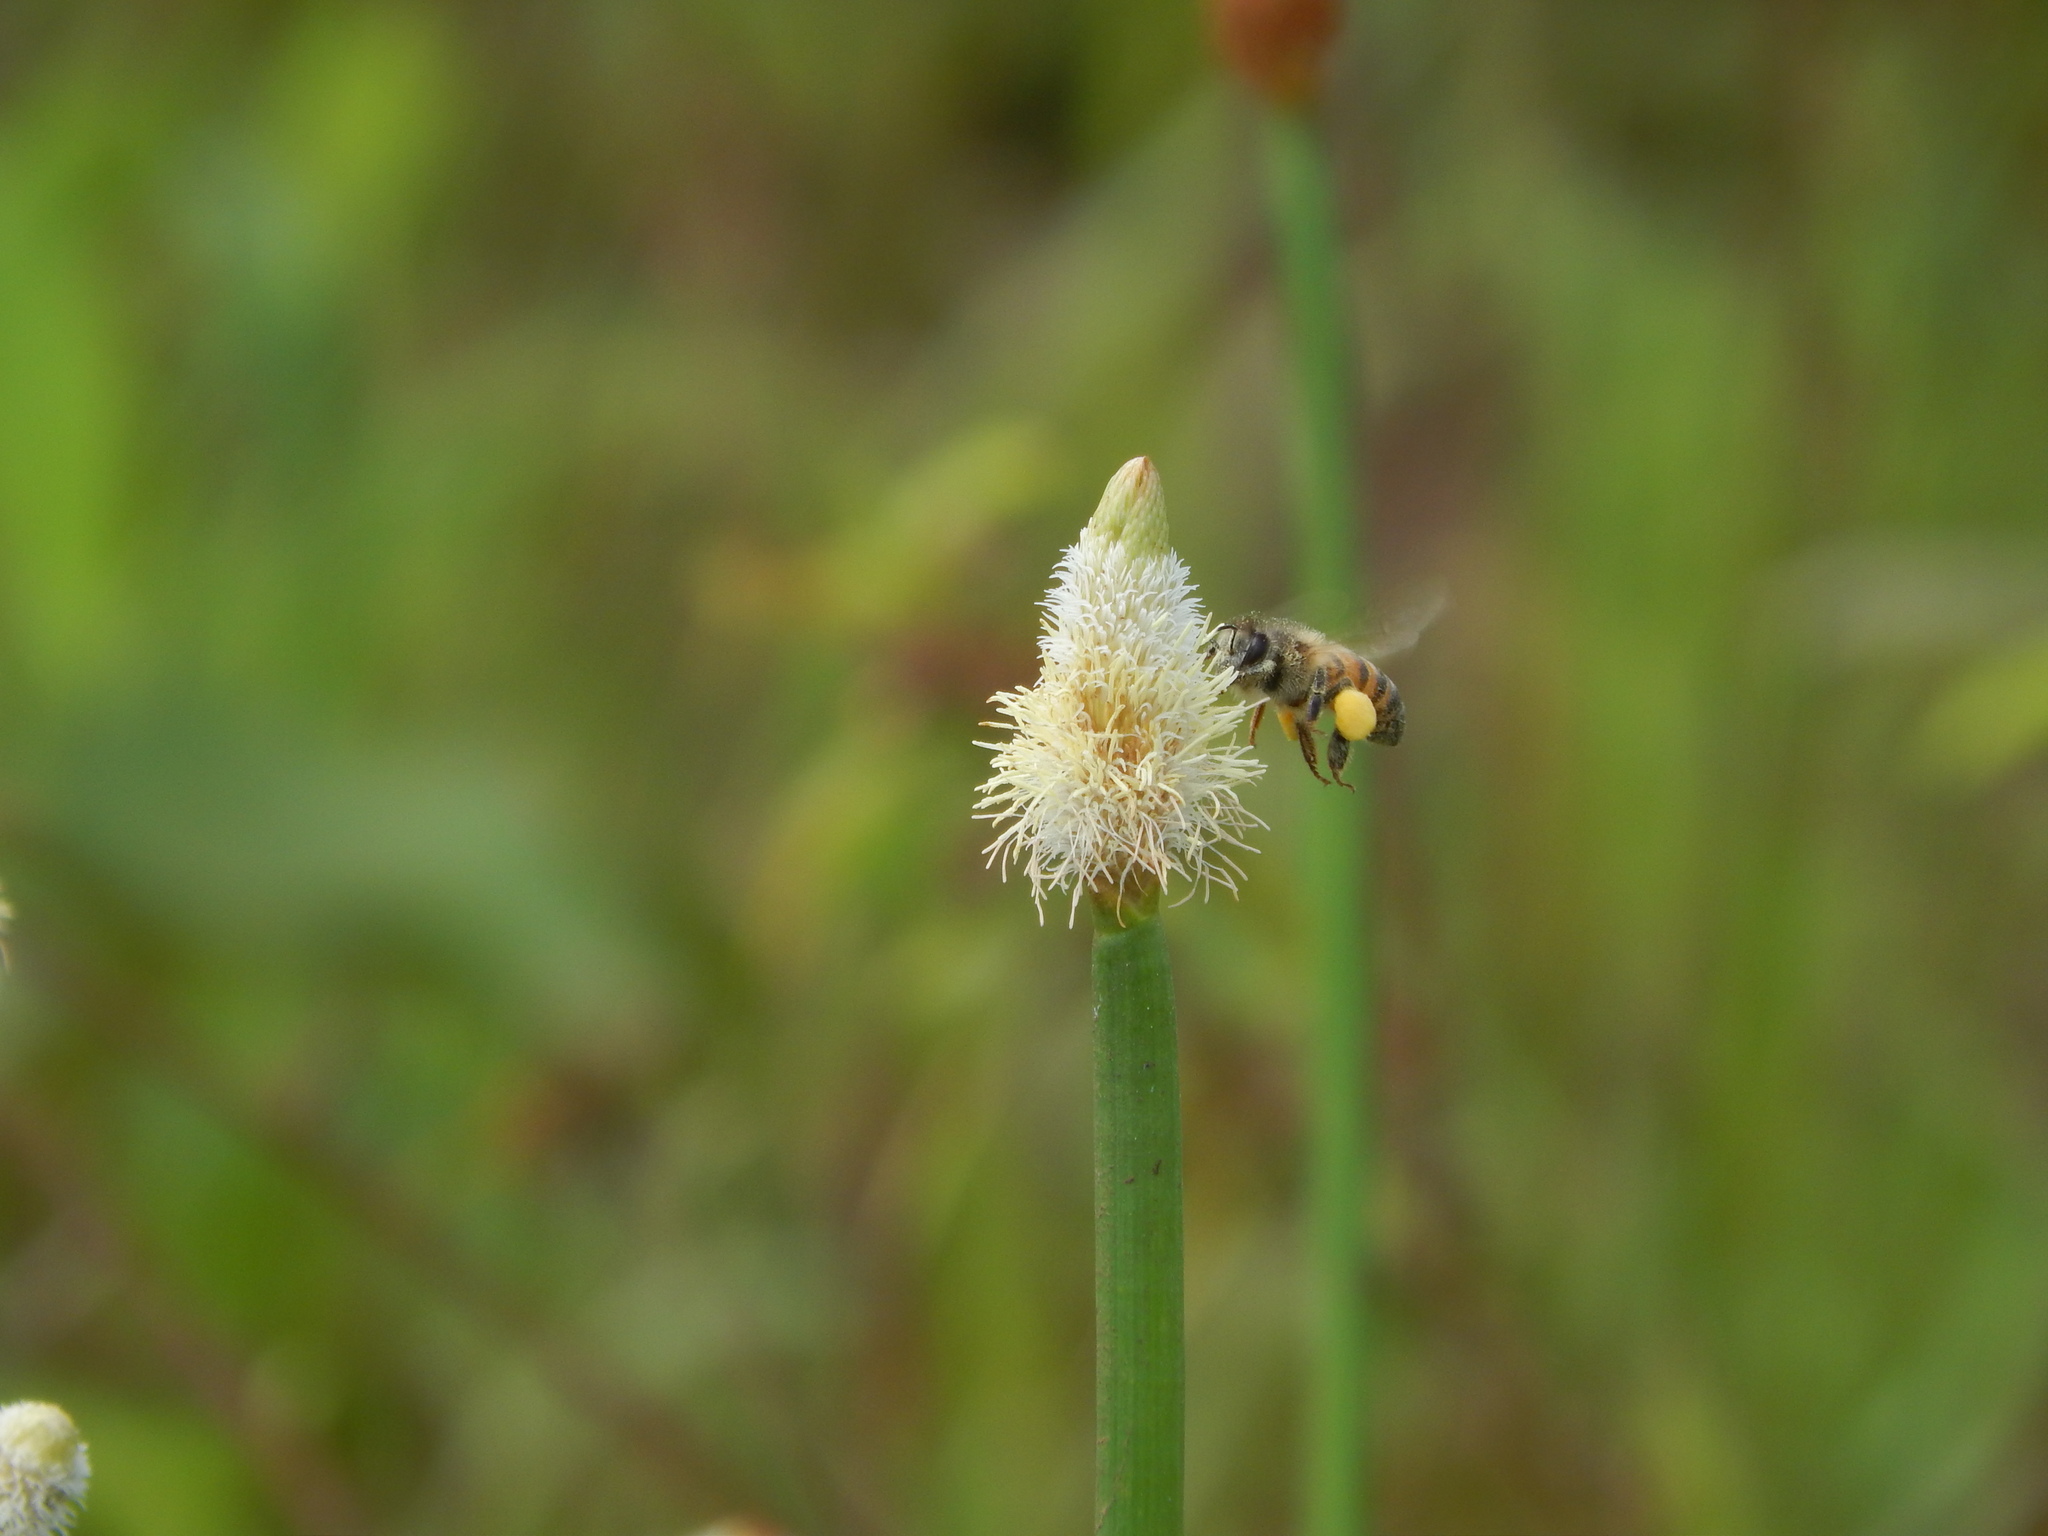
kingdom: Animalia
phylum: Arthropoda
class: Insecta
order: Hymenoptera
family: Apidae
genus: Apis
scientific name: Apis mellifera
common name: Honey bee
